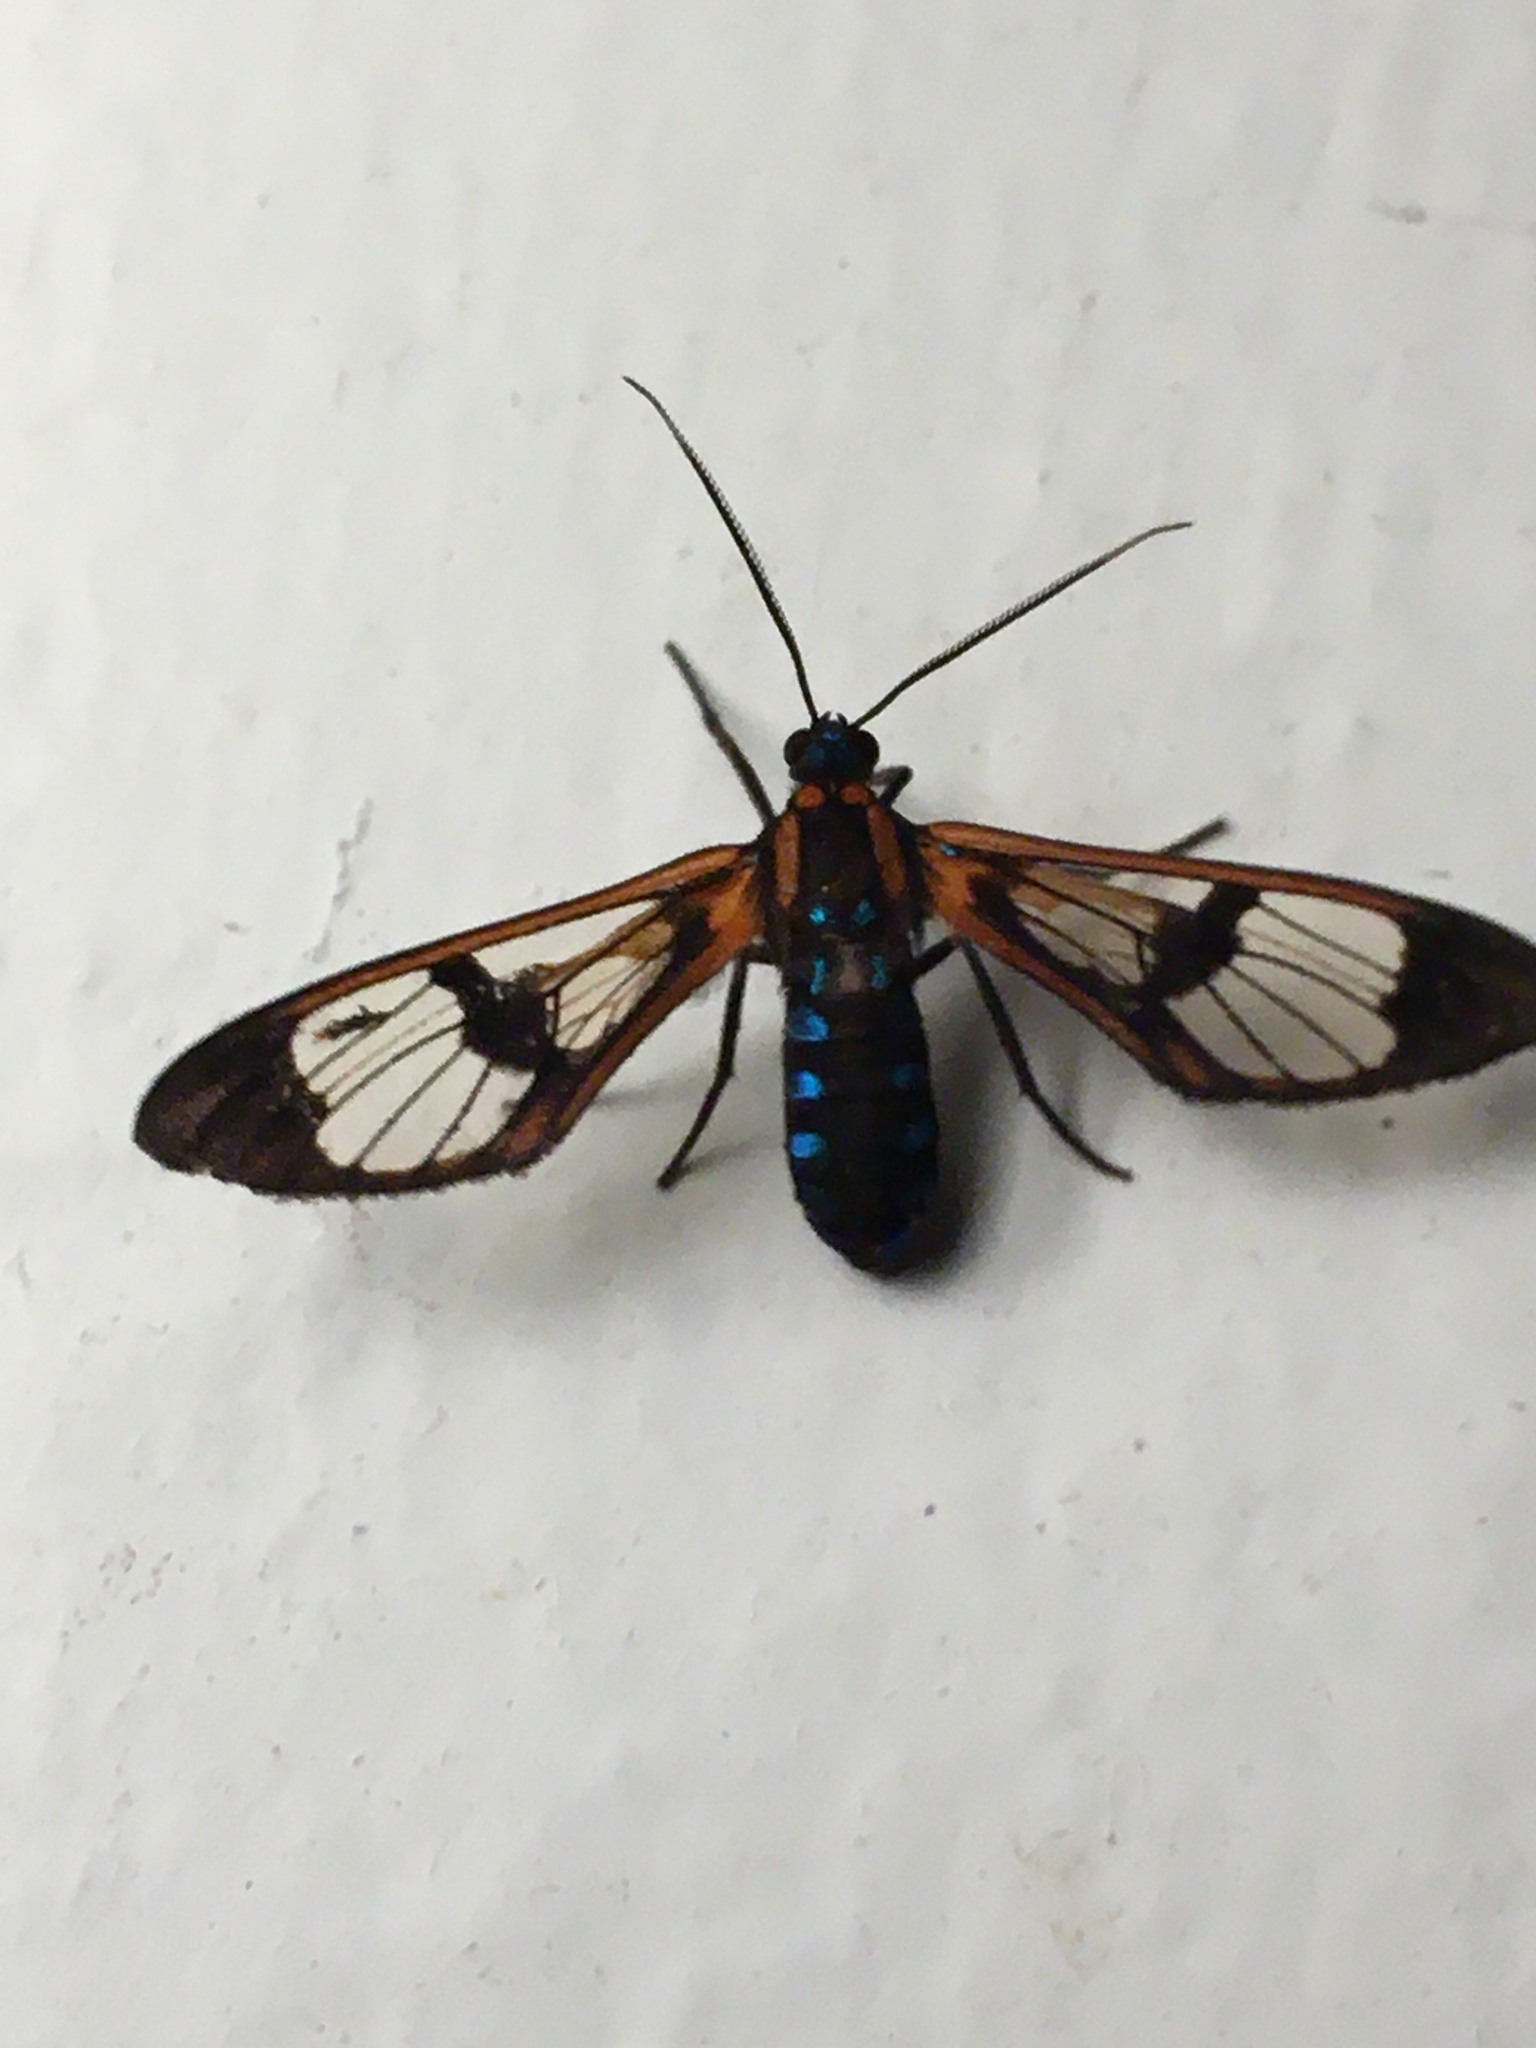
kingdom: Animalia
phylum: Arthropoda
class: Insecta
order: Lepidoptera
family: Erebidae
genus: Cosmosoma
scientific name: Cosmosoma festivum
